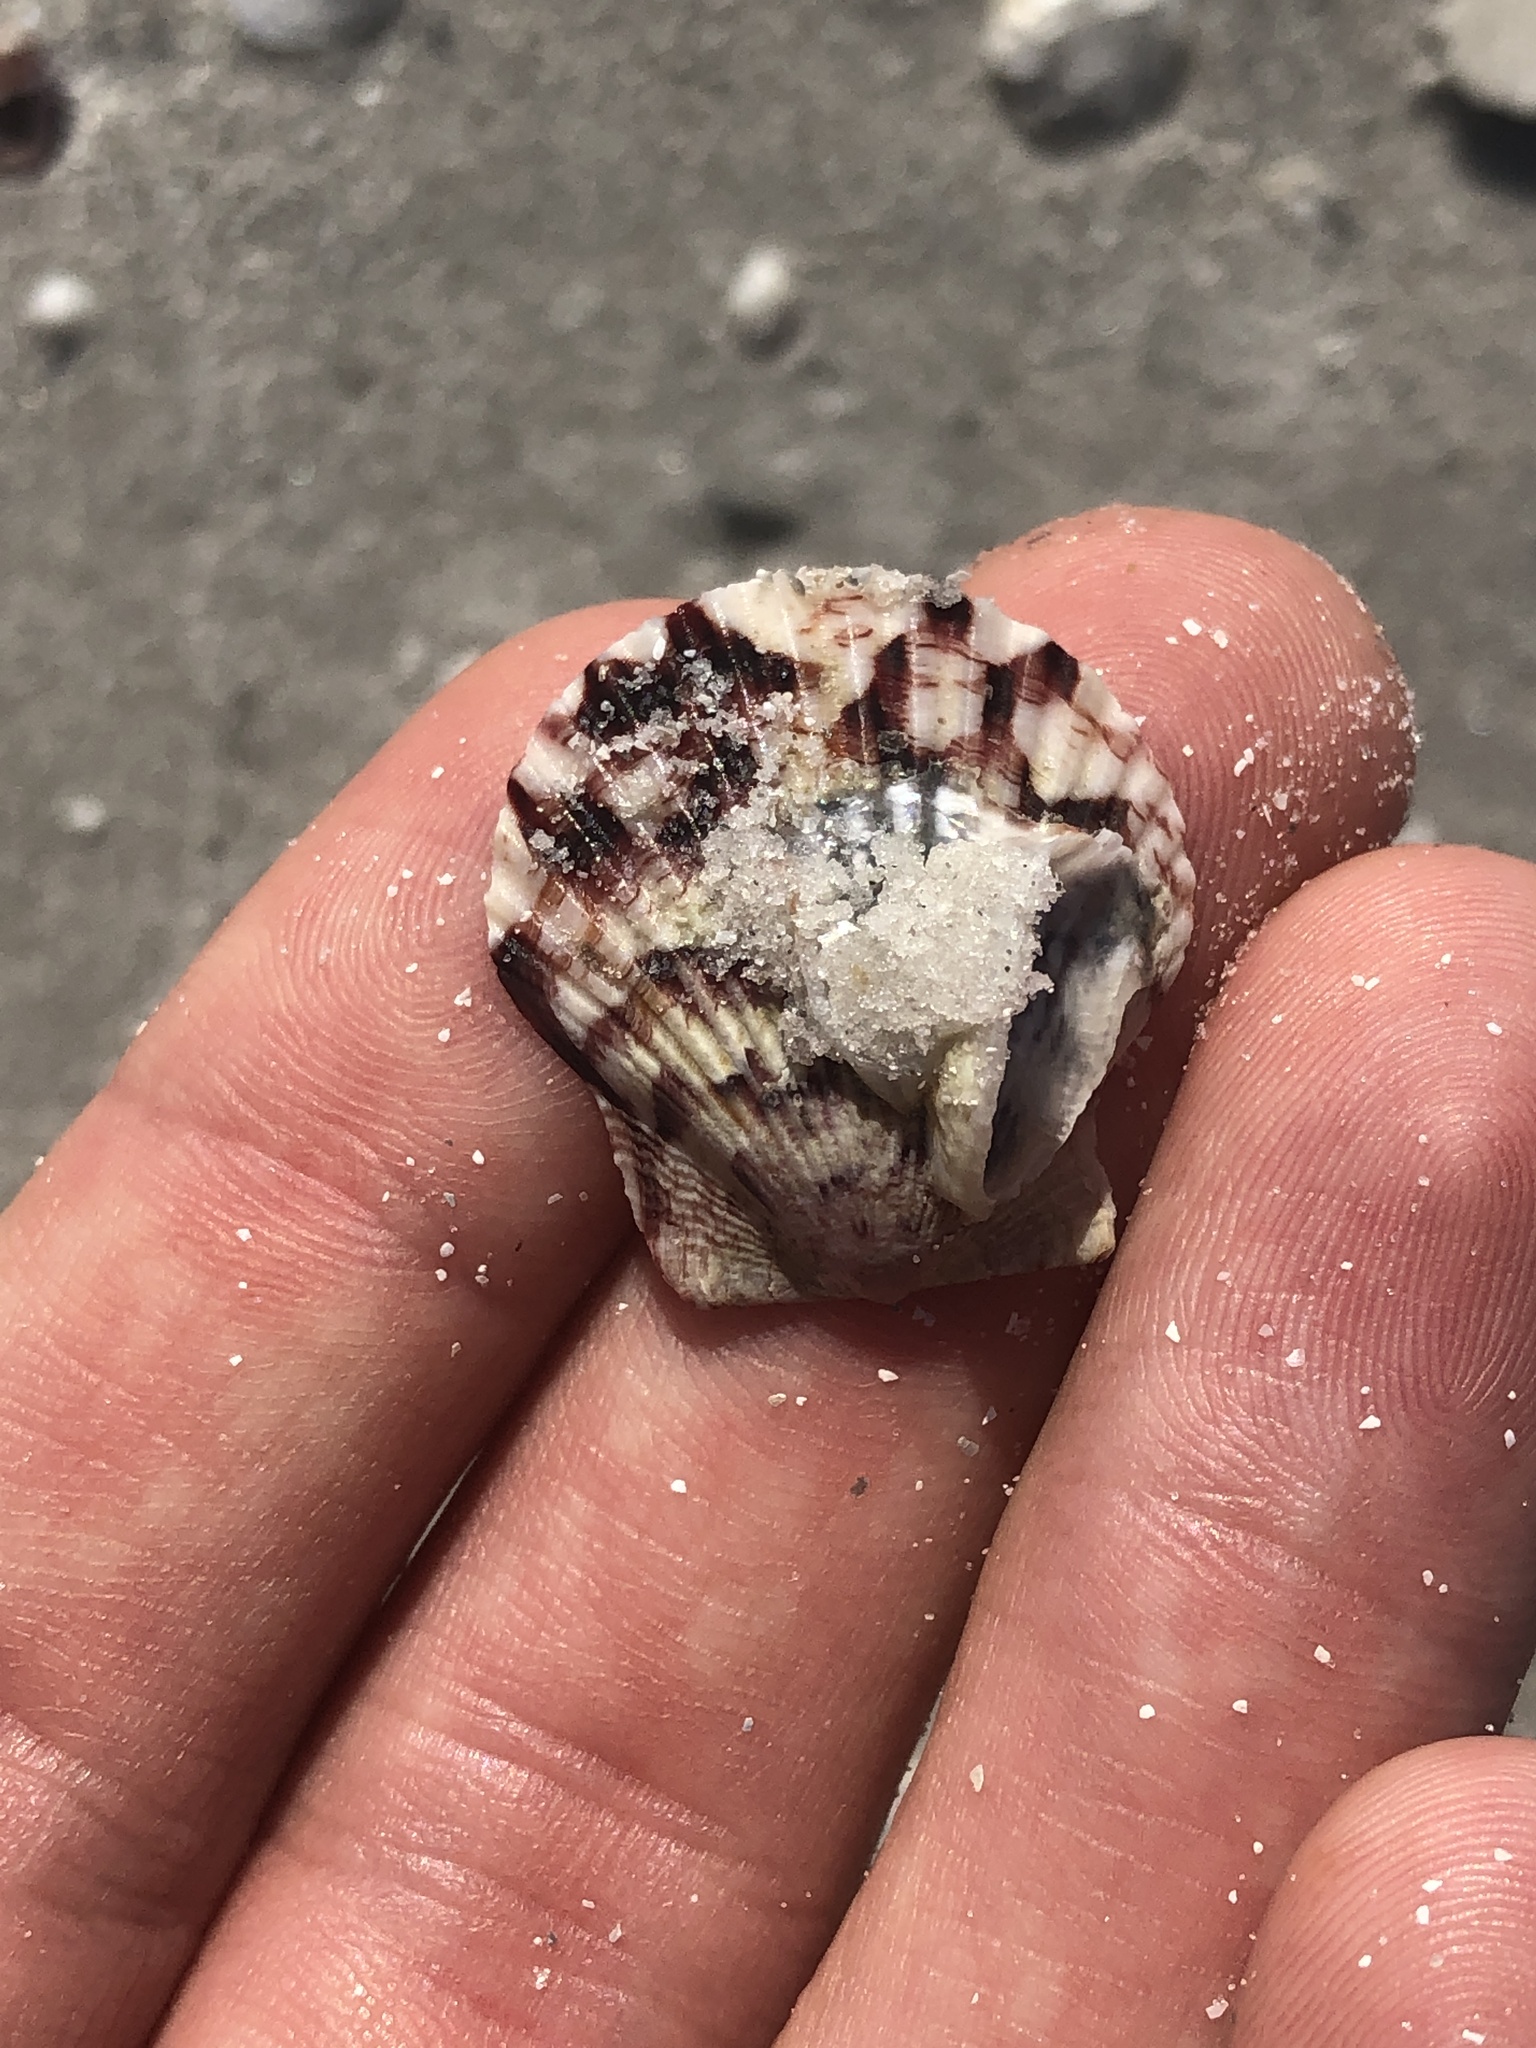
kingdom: Animalia
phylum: Mollusca
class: Bivalvia
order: Pectinida
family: Pectinidae
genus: Argopecten
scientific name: Argopecten gibbus
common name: Atlantic calico scallop
